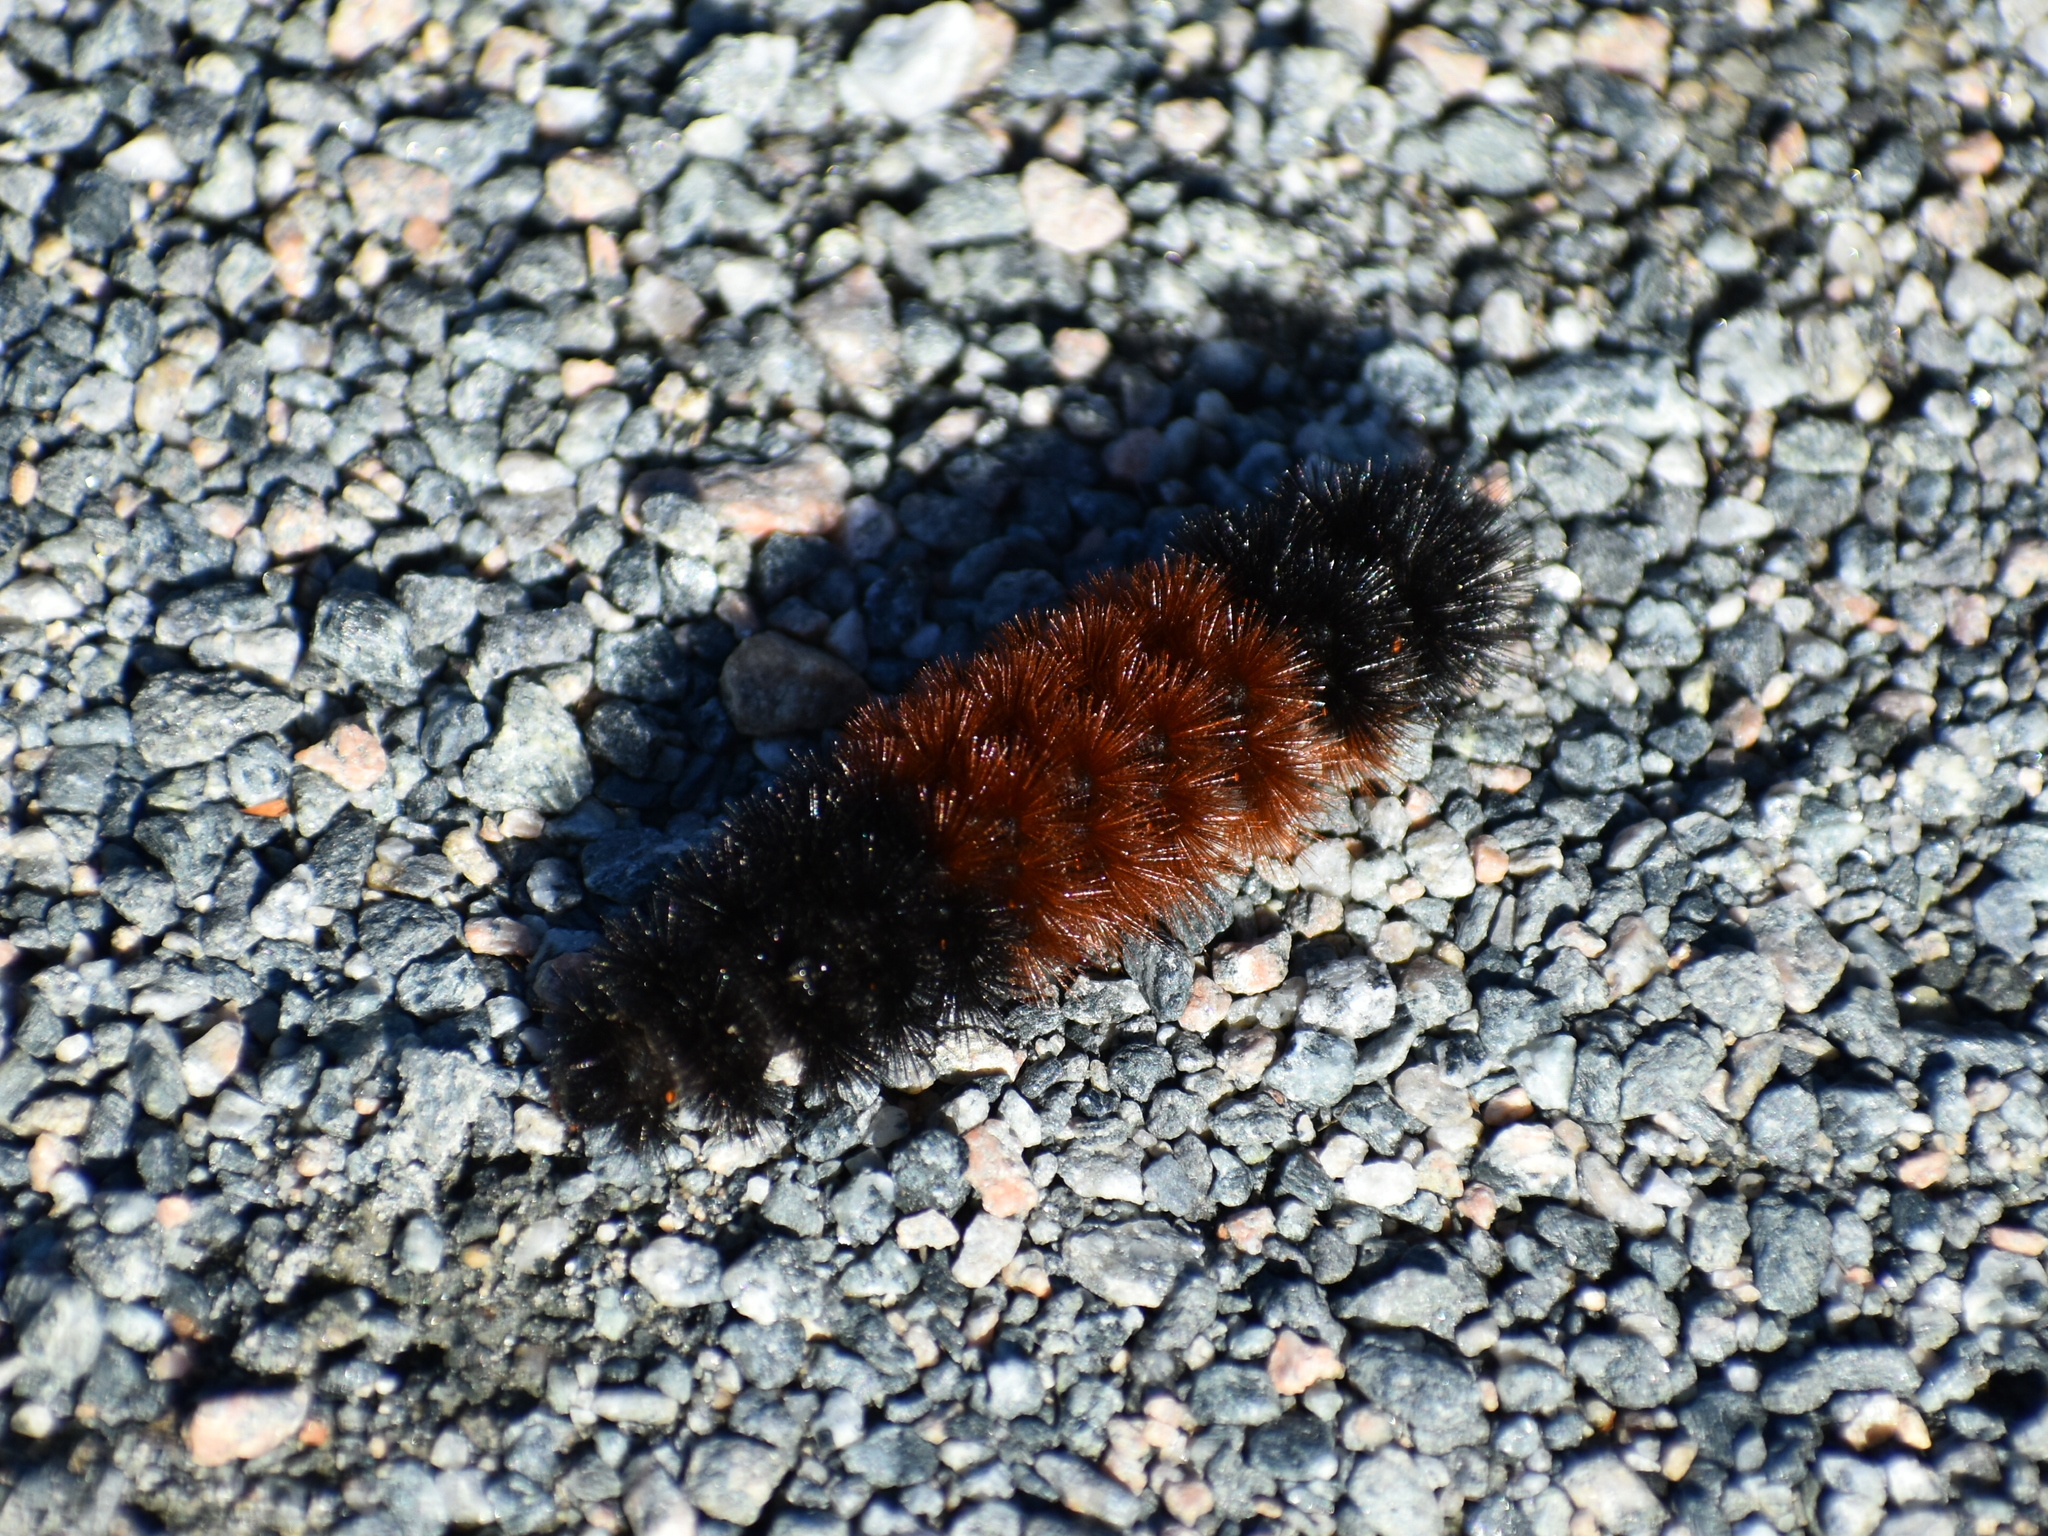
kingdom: Animalia
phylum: Arthropoda
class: Insecta
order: Lepidoptera
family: Erebidae
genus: Pyrrharctia
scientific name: Pyrrharctia isabella
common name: Isabella tiger moth
